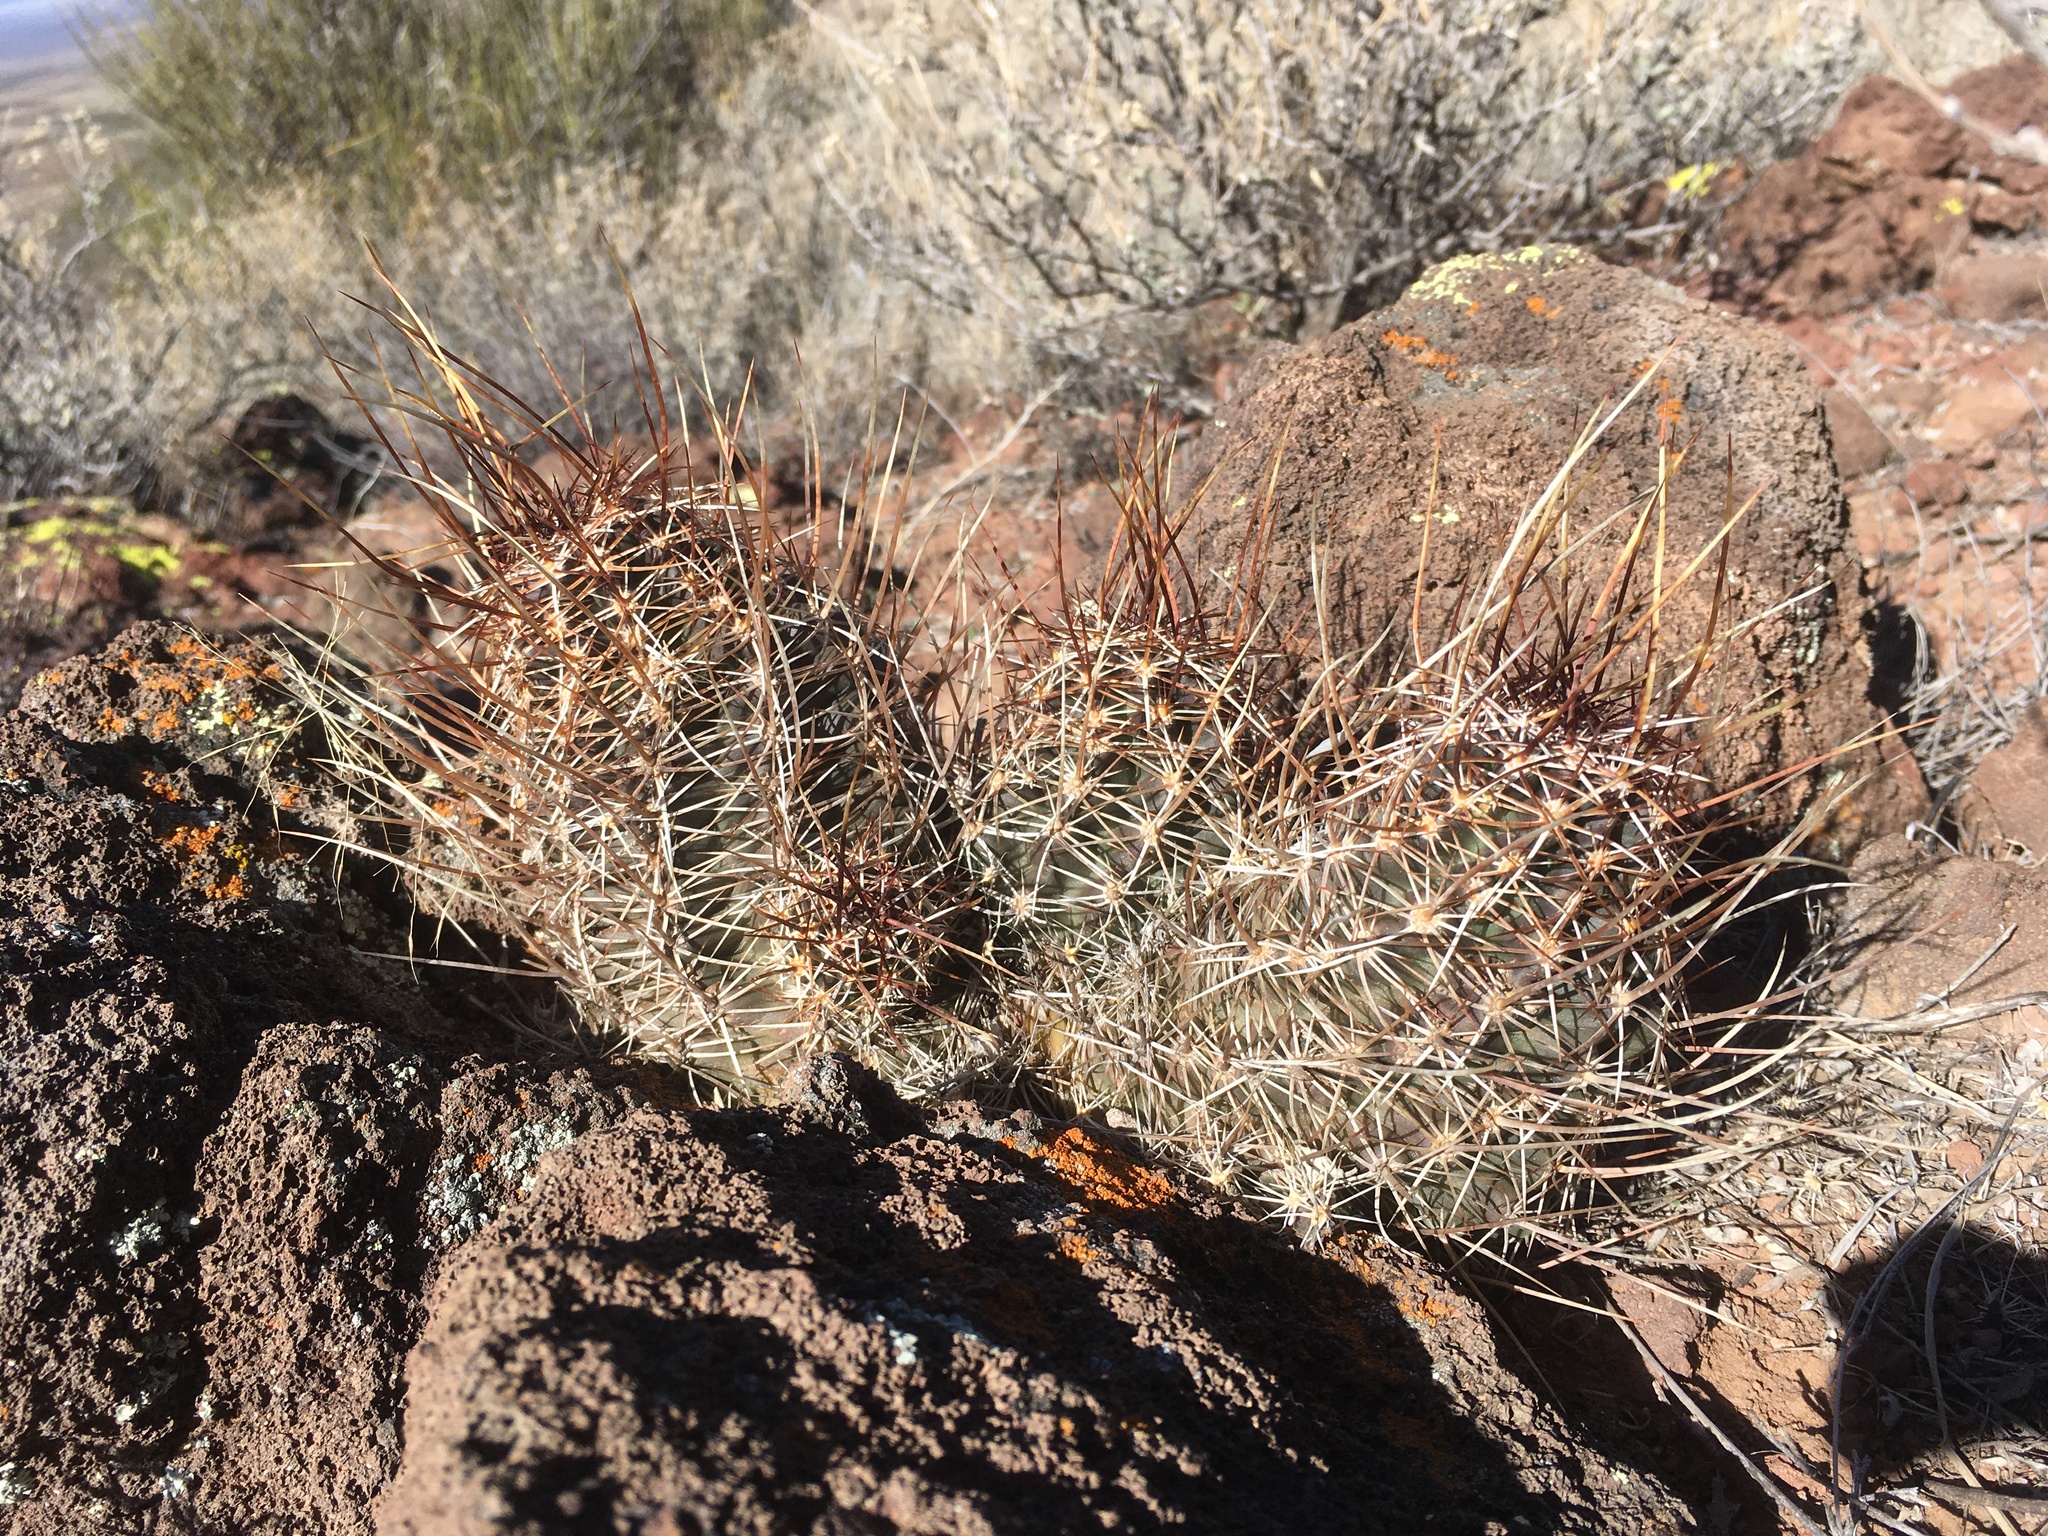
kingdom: Plantae
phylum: Tracheophyta
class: Magnoliopsida
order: Caryophyllales
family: Cactaceae
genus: Echinocereus
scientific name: Echinocereus fendleri
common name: Fendler's hedgehog cactus
